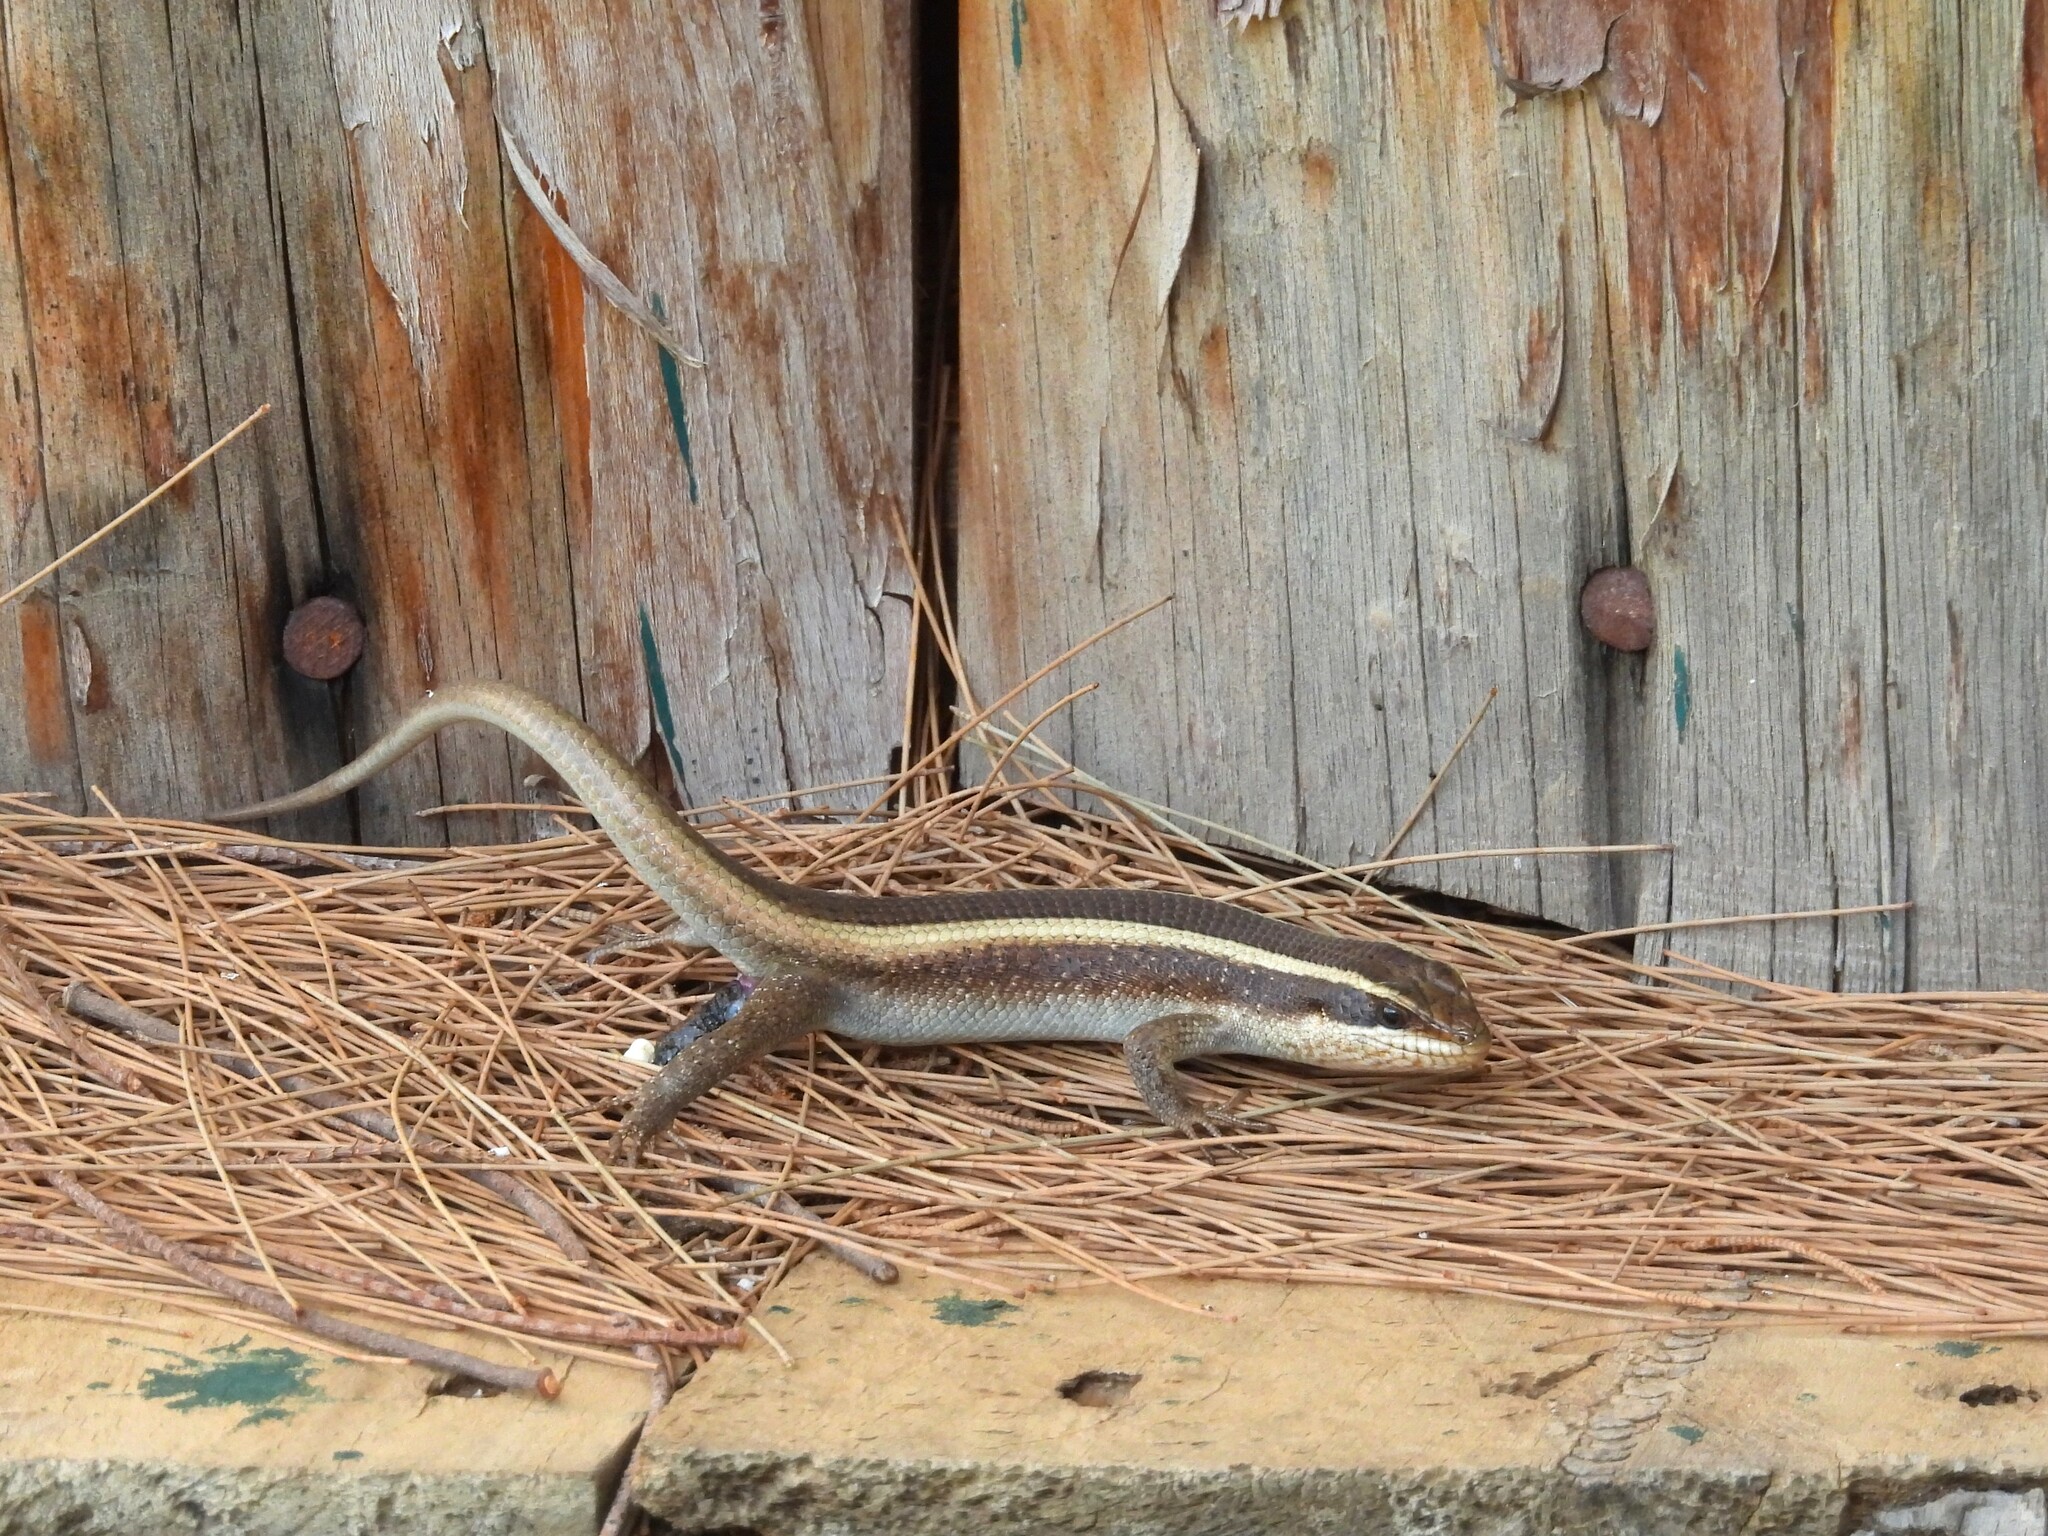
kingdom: Animalia
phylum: Chordata
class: Squamata
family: Scincidae
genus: Trachylepis
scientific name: Trachylepis striata
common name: African striped mabuya
